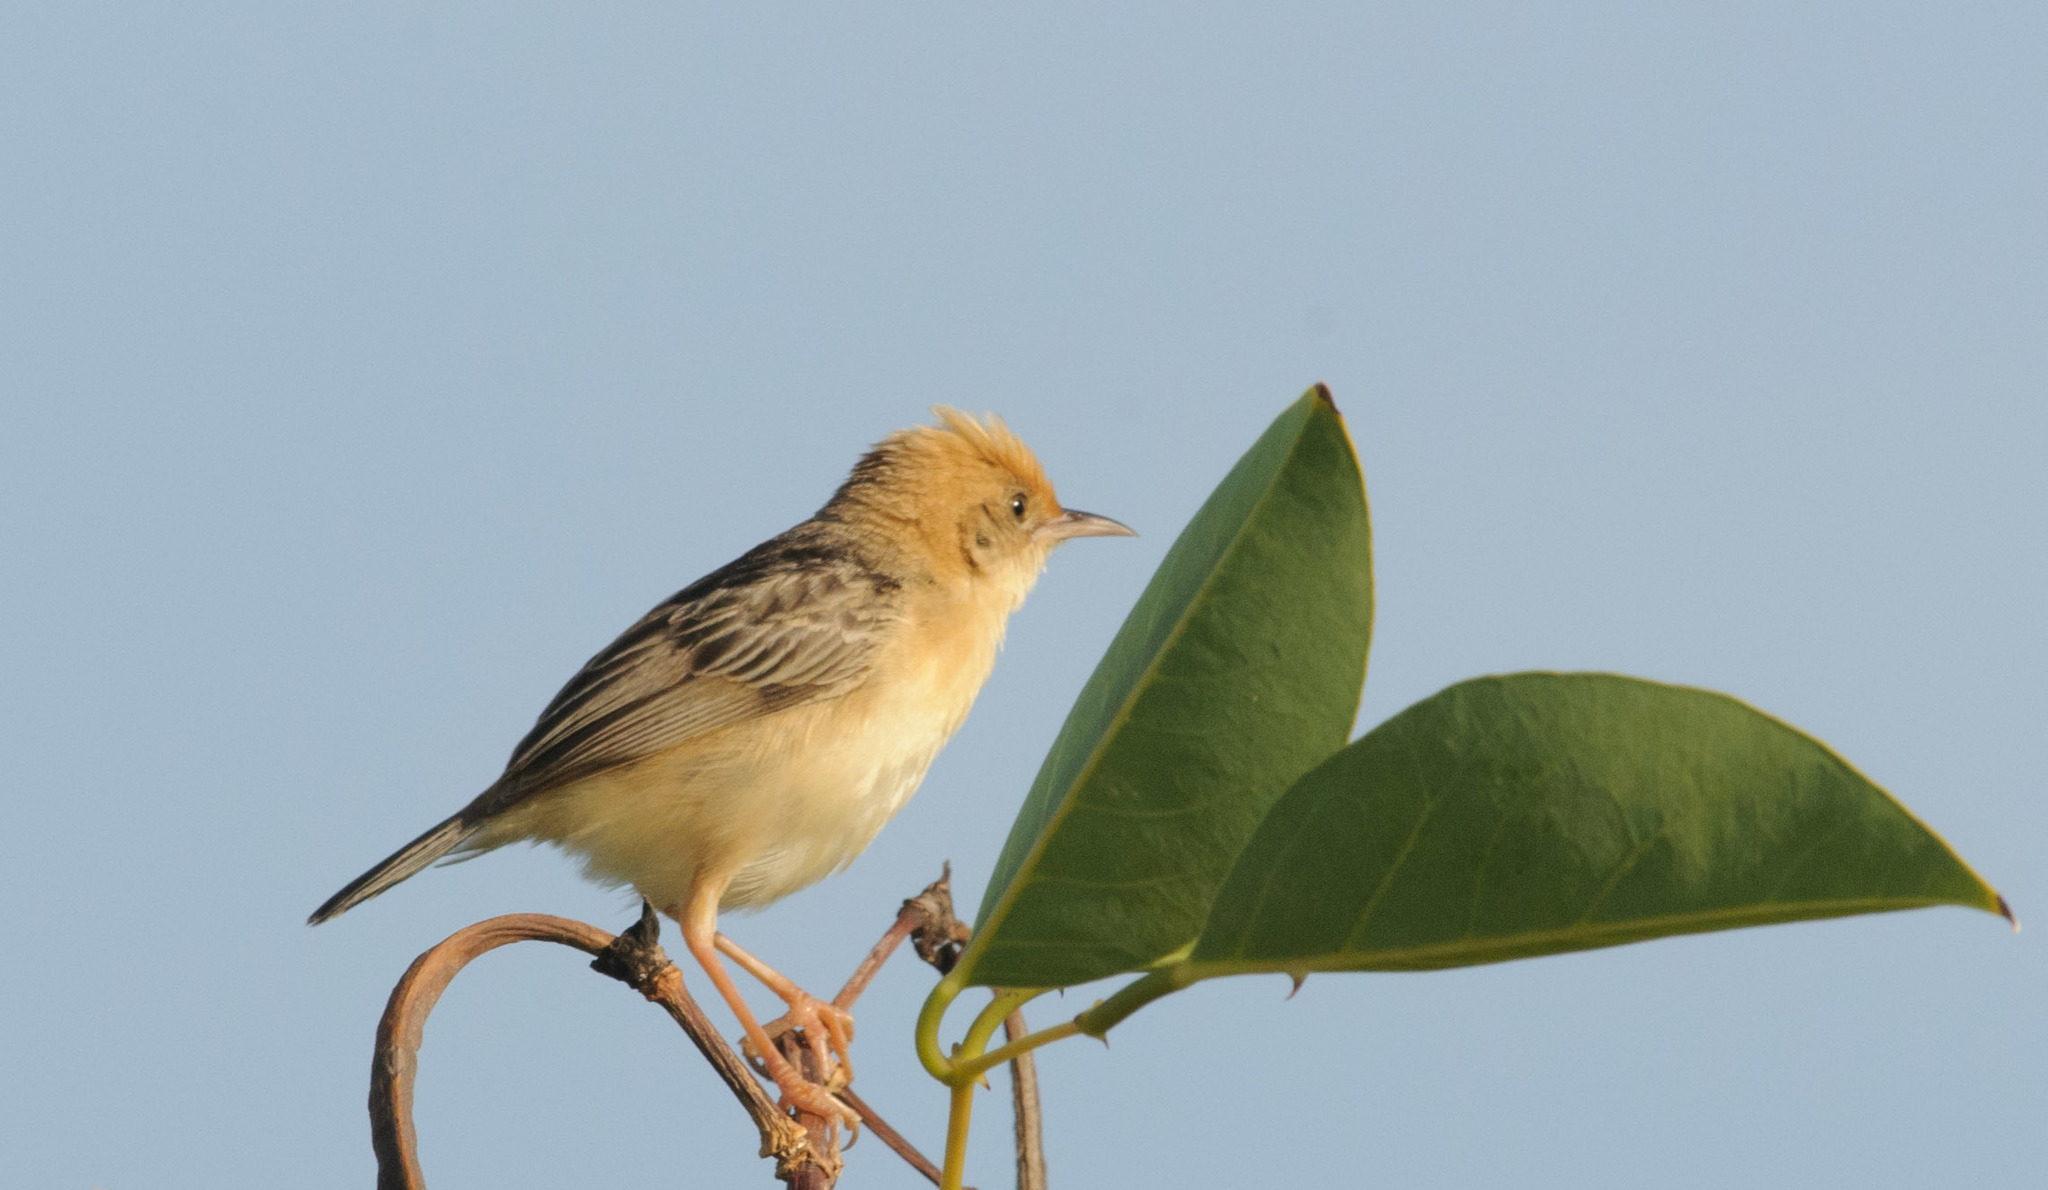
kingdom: Animalia
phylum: Chordata
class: Aves
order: Passeriformes
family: Cisticolidae
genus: Cisticola
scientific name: Cisticola exilis
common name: Golden-headed cisticola
